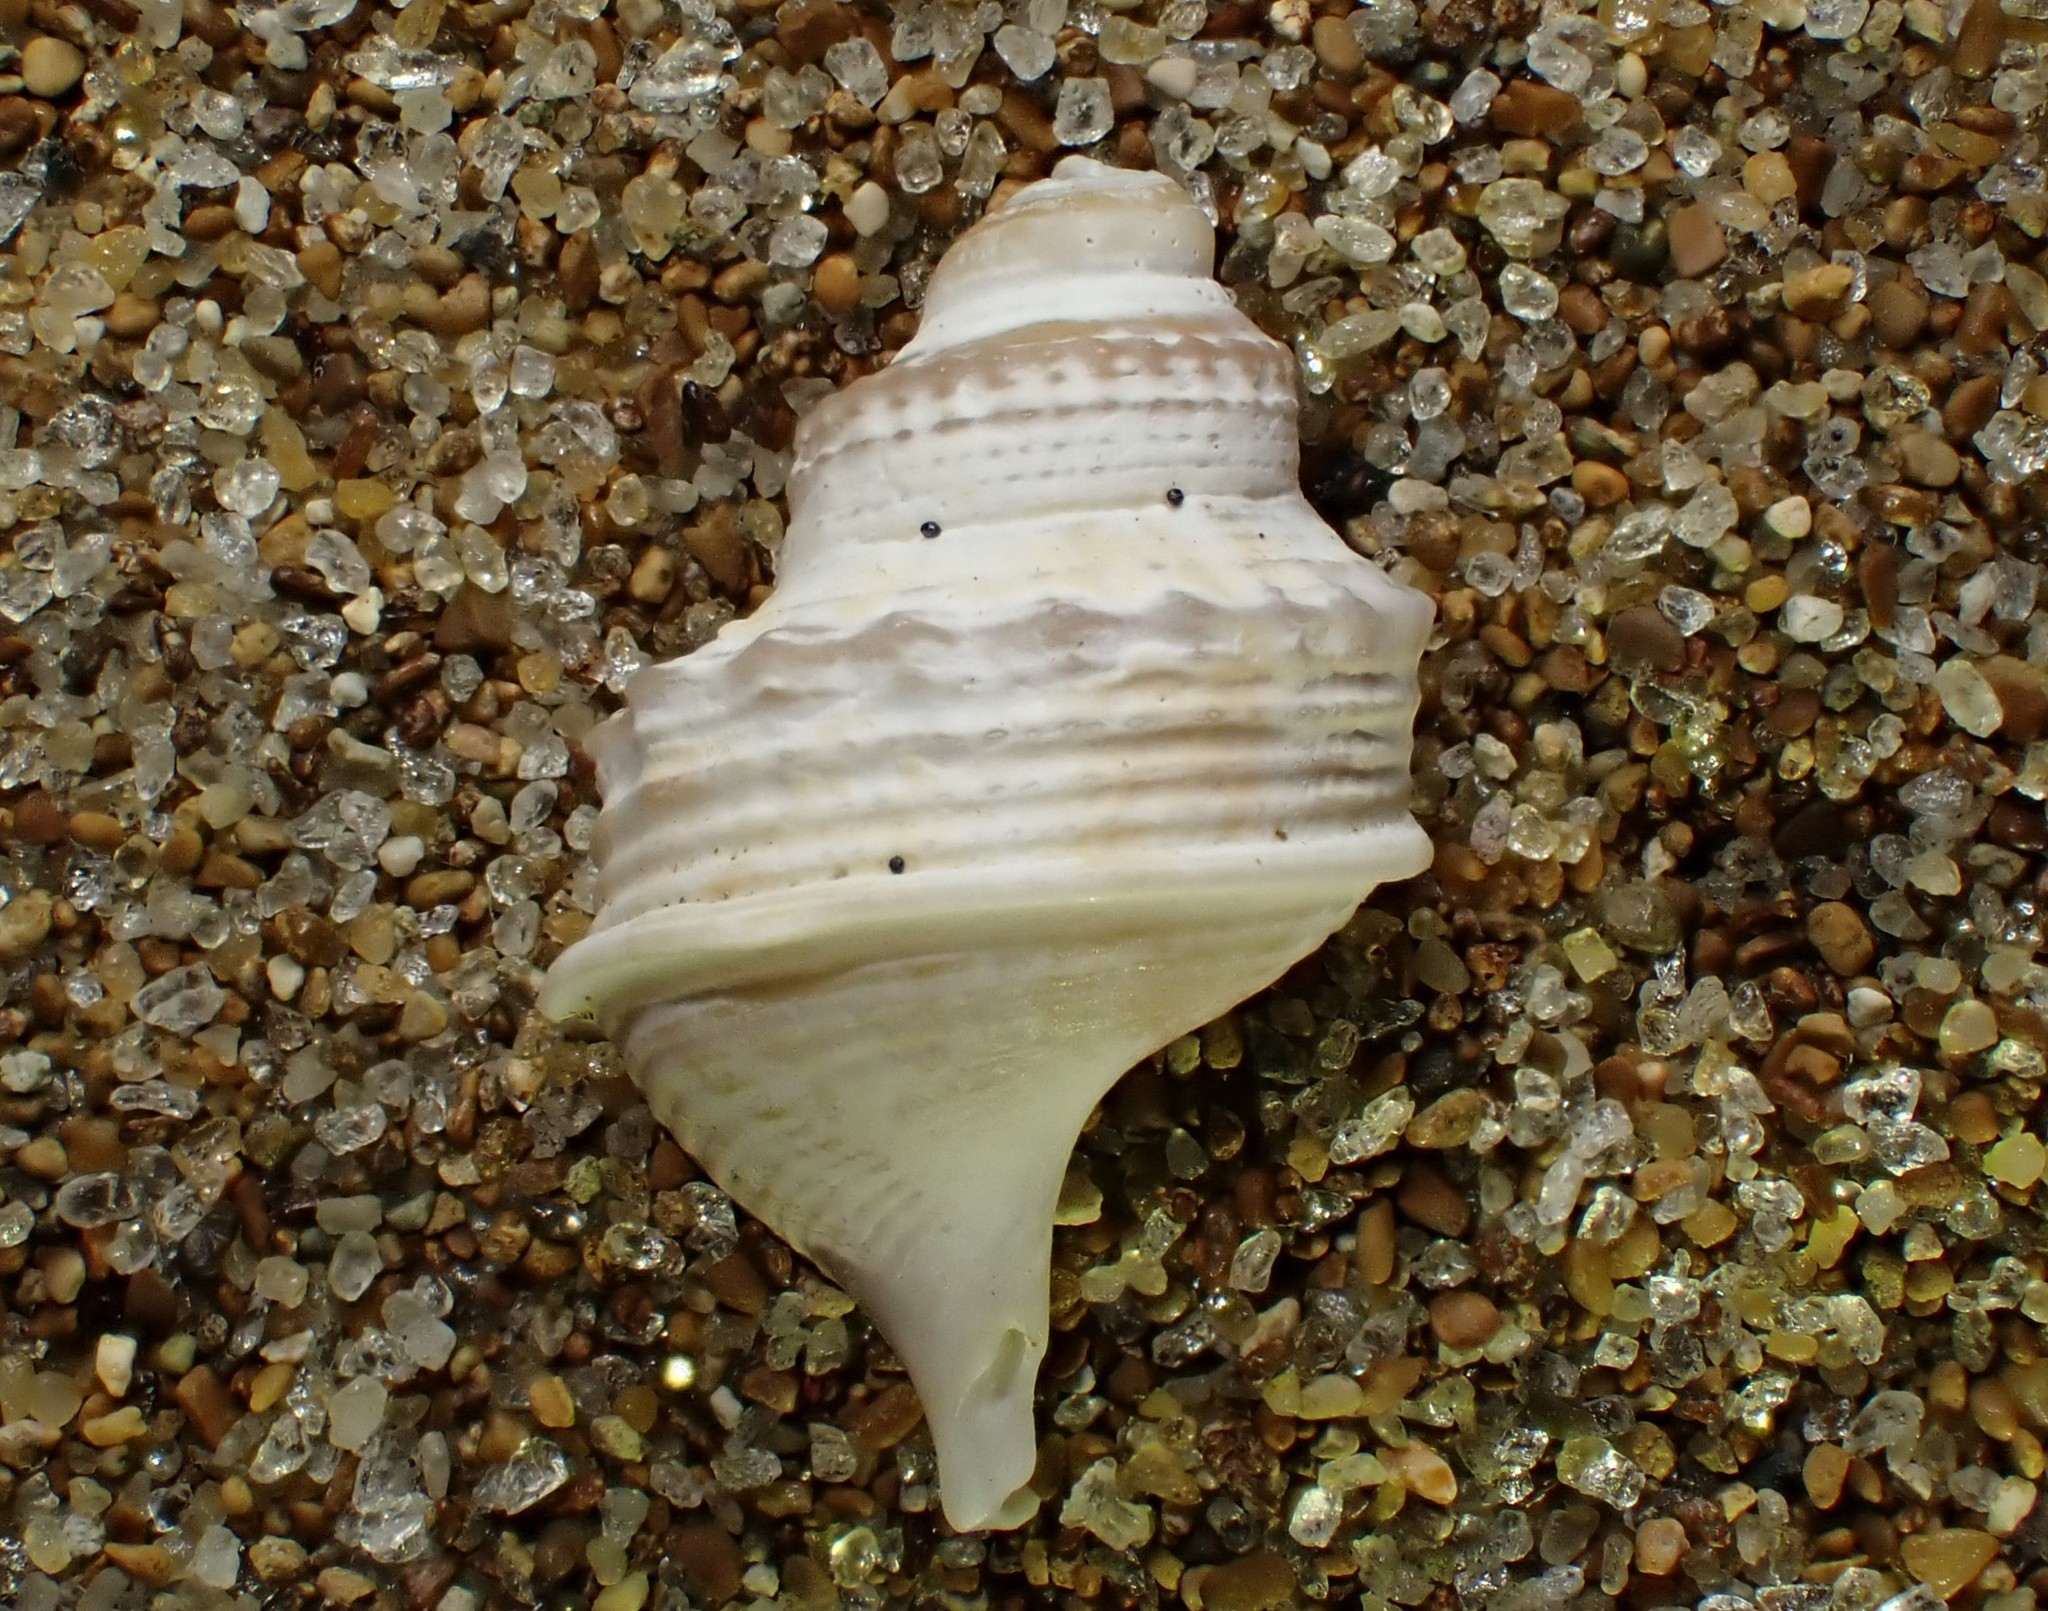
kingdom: Animalia
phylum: Mollusca
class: Gastropoda
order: Littorinimorpha
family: Struthiolariidae
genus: Struthiolaria
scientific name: Struthiolaria papulosa
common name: Large ostrich foot
